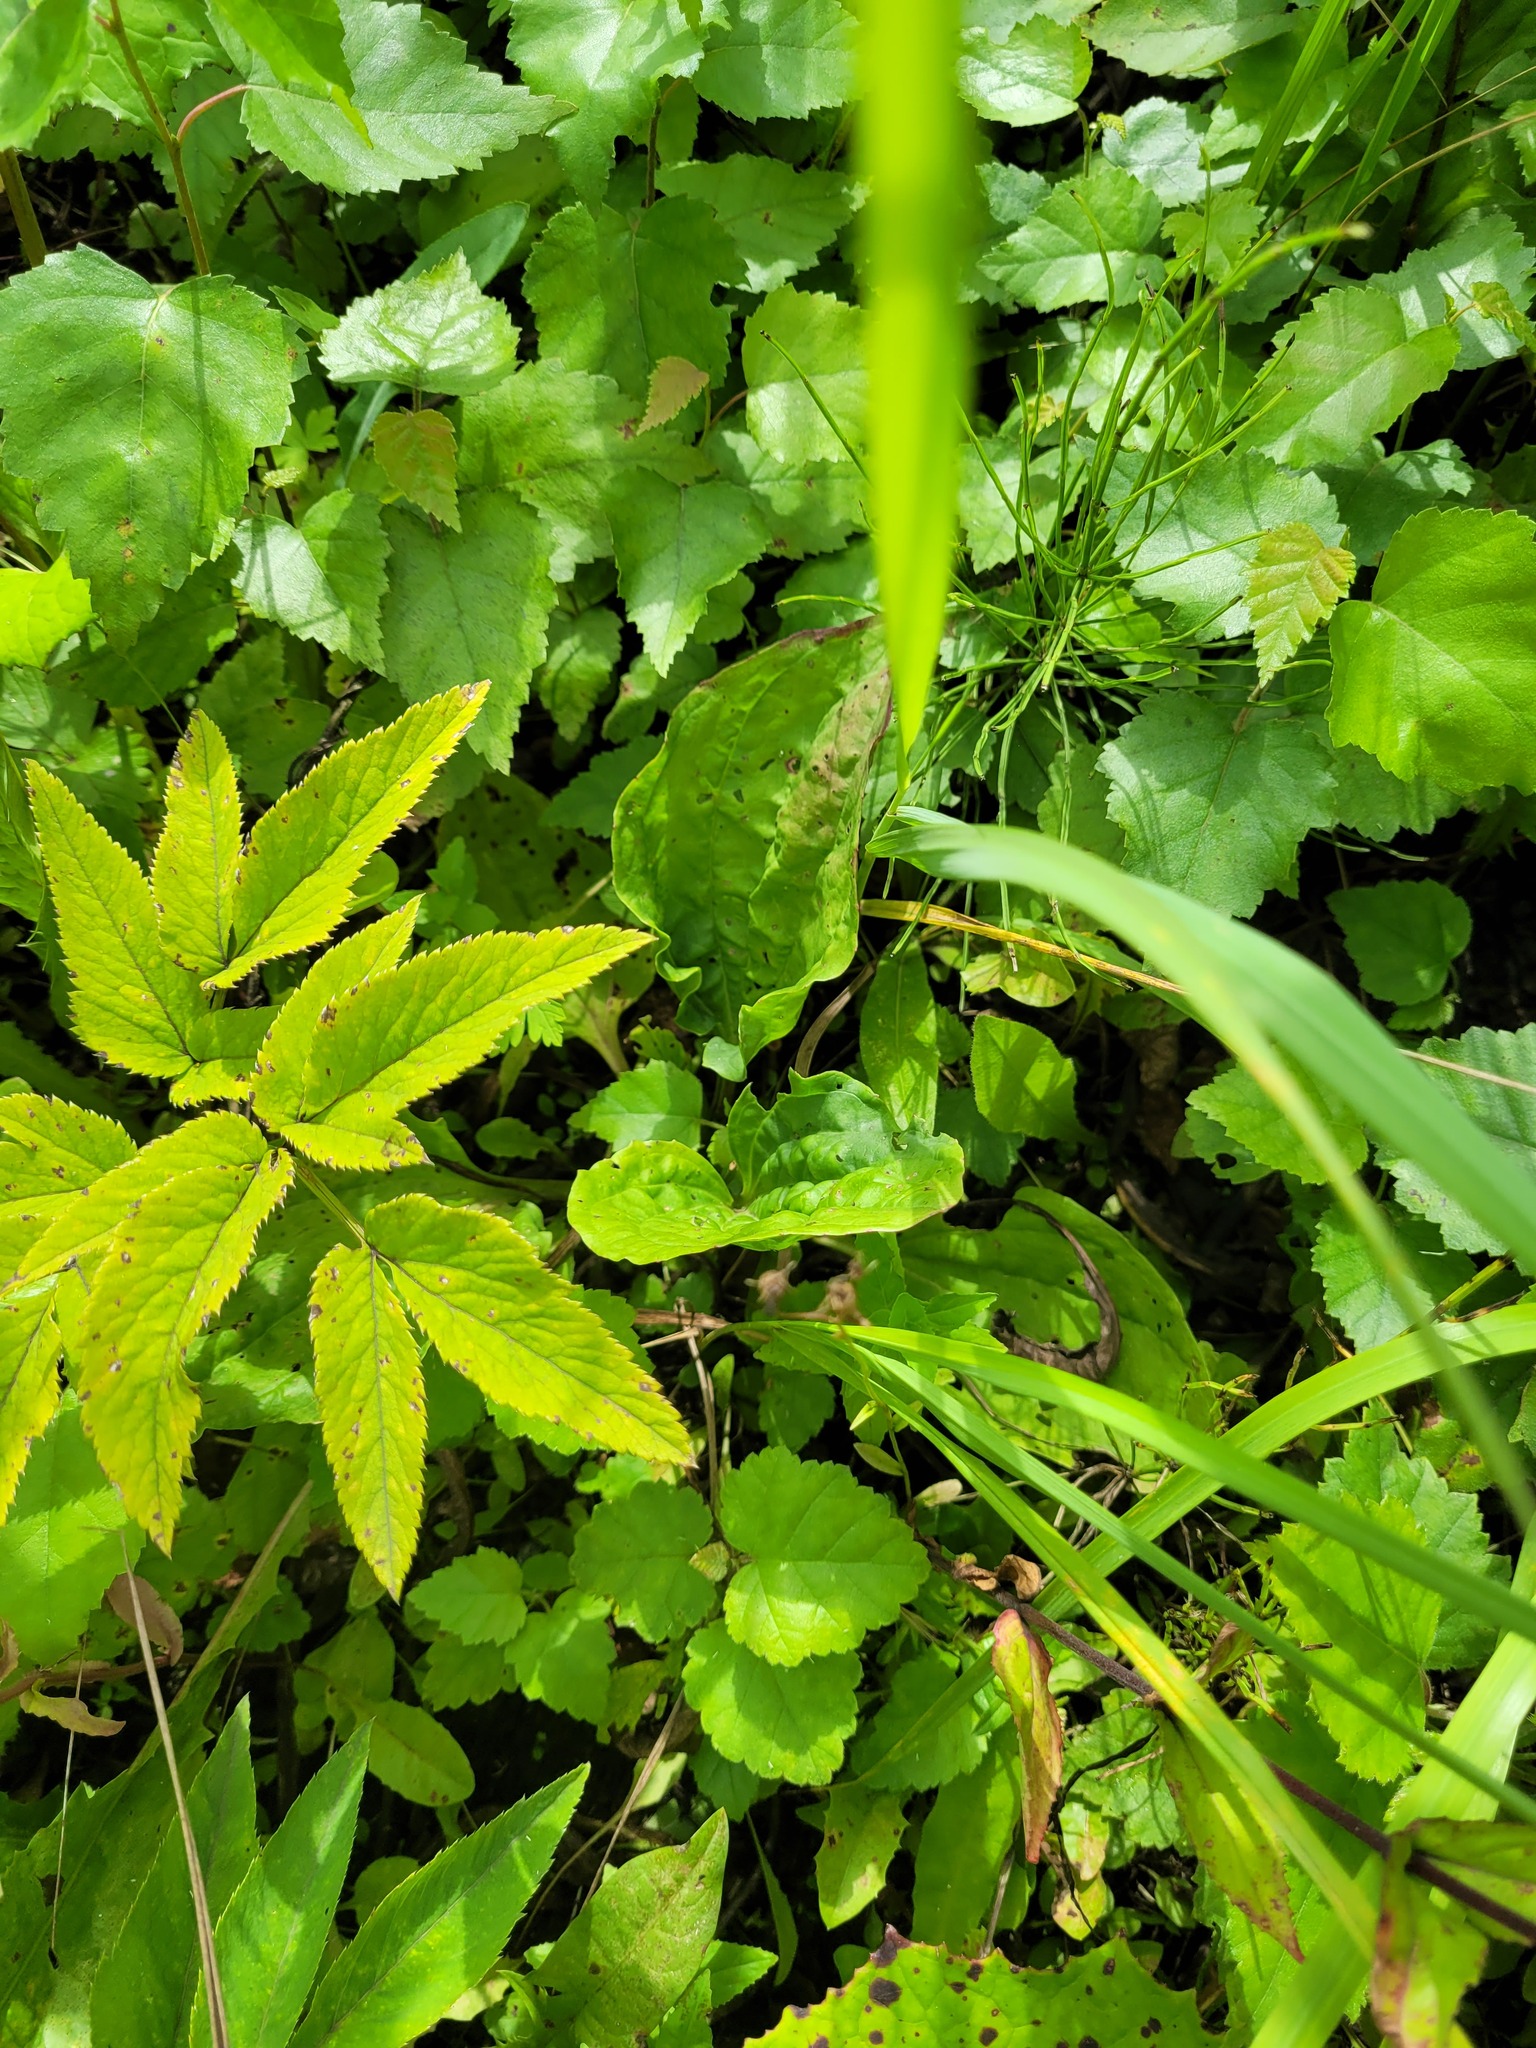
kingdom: Plantae
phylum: Tracheophyta
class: Magnoliopsida
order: Lamiales
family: Plantaginaceae
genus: Plantago
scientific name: Plantago major
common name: Common plantain
